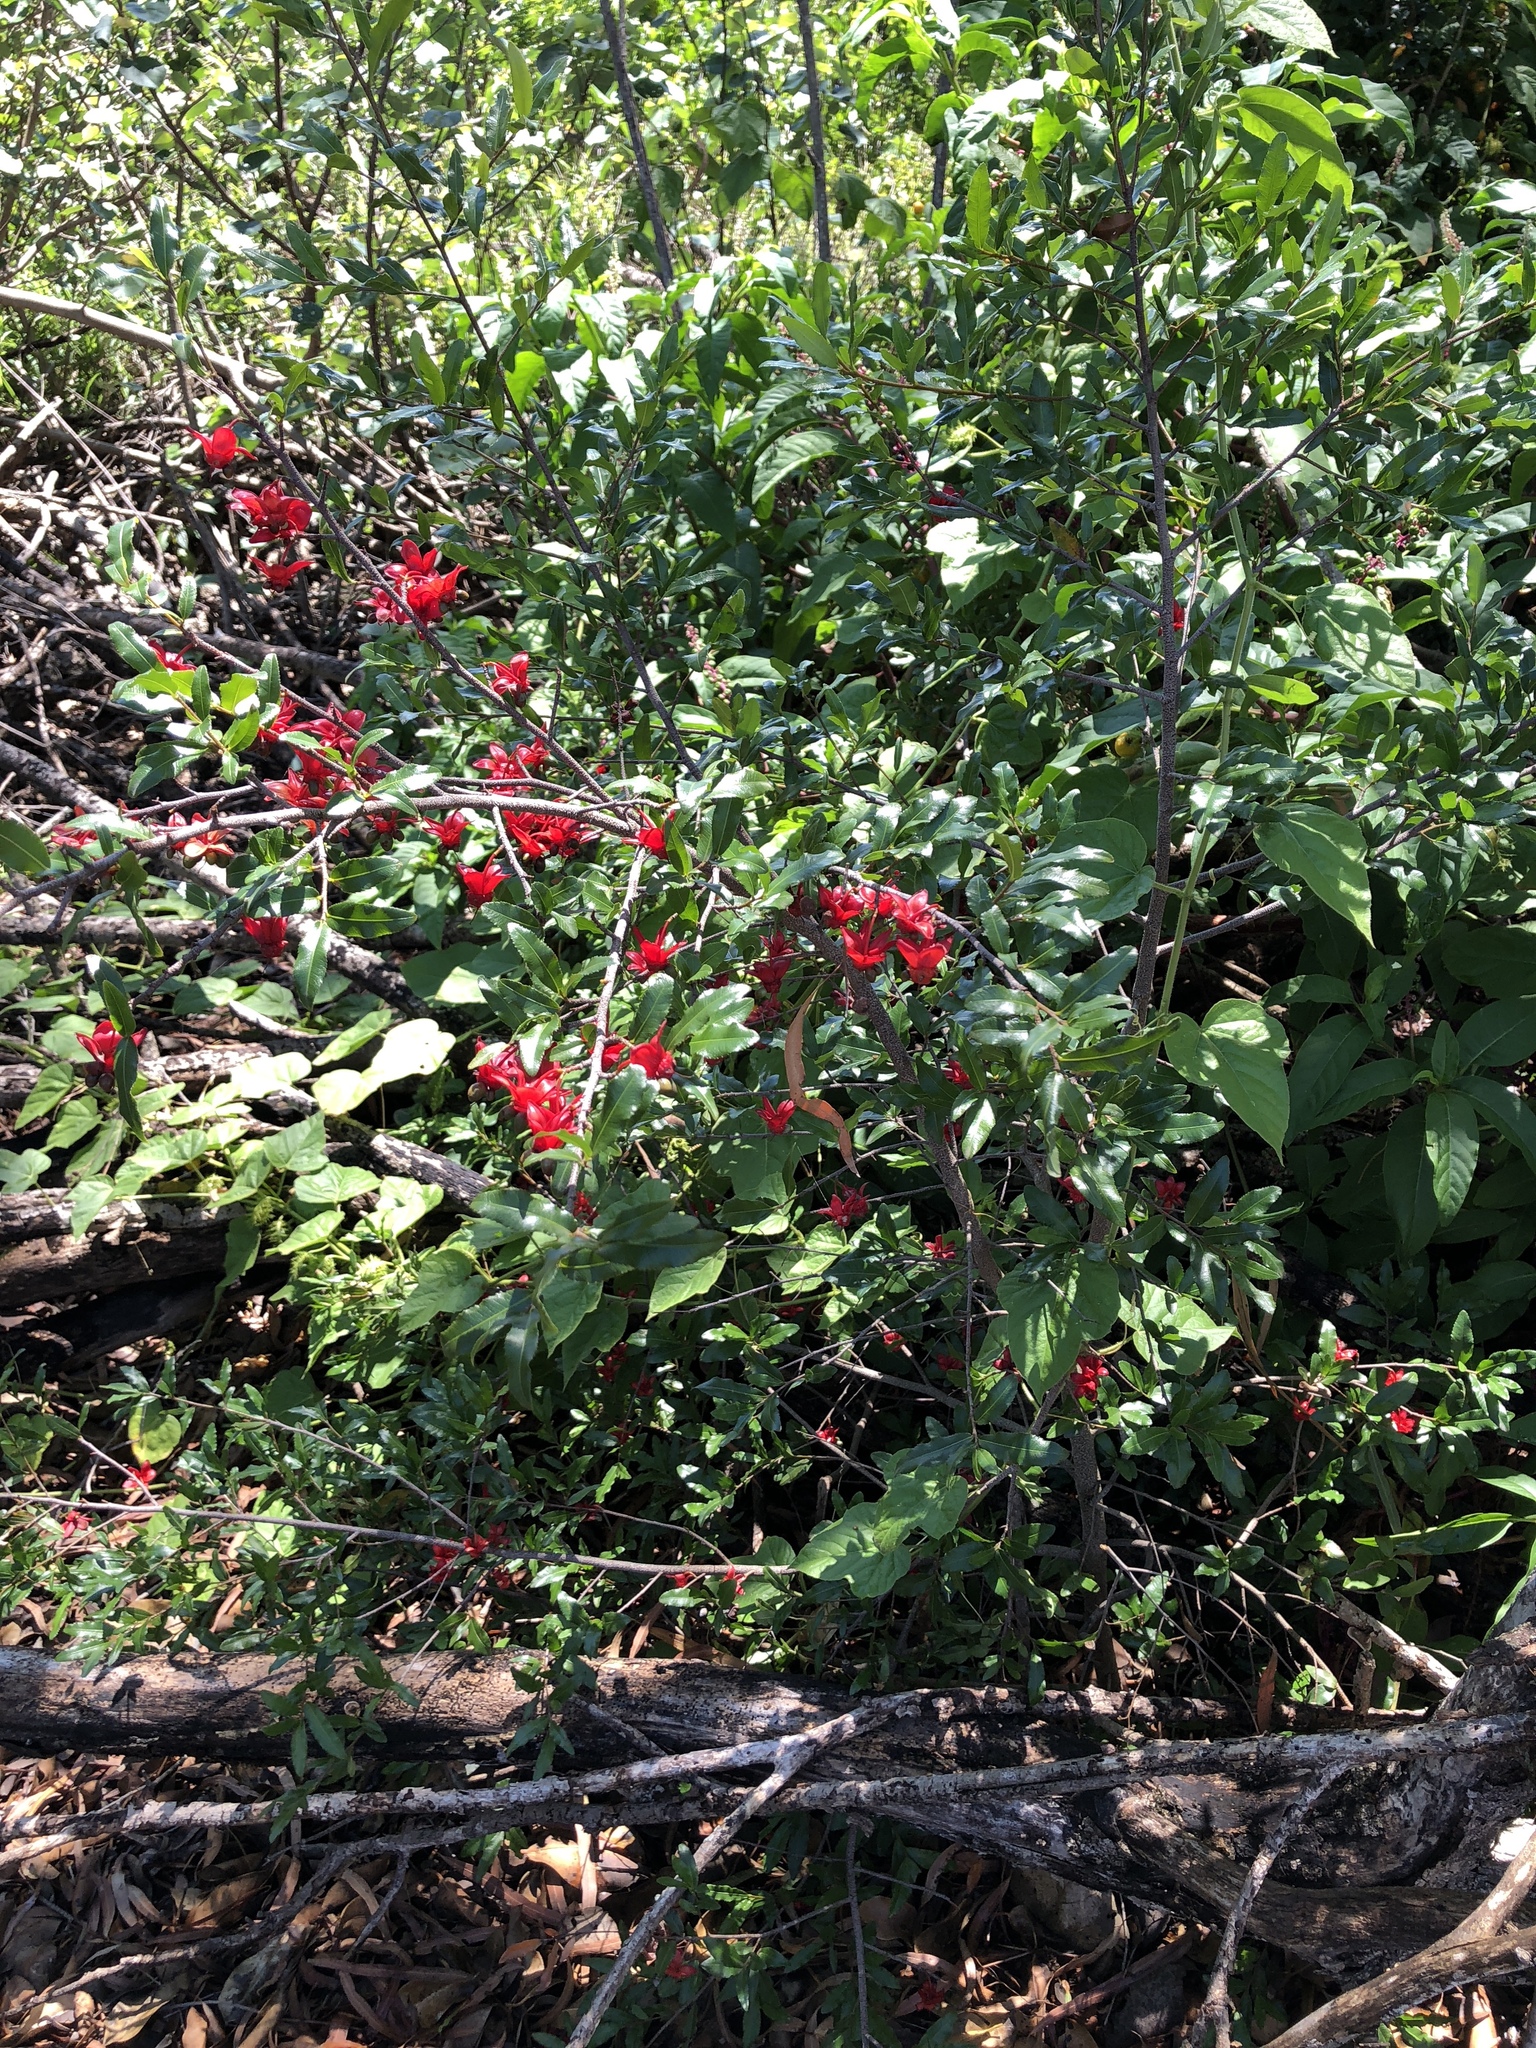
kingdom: Plantae
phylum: Tracheophyta
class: Magnoliopsida
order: Malpighiales
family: Ochnaceae
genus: Ochna
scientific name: Ochna serrulata
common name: Mickey mouse plant
